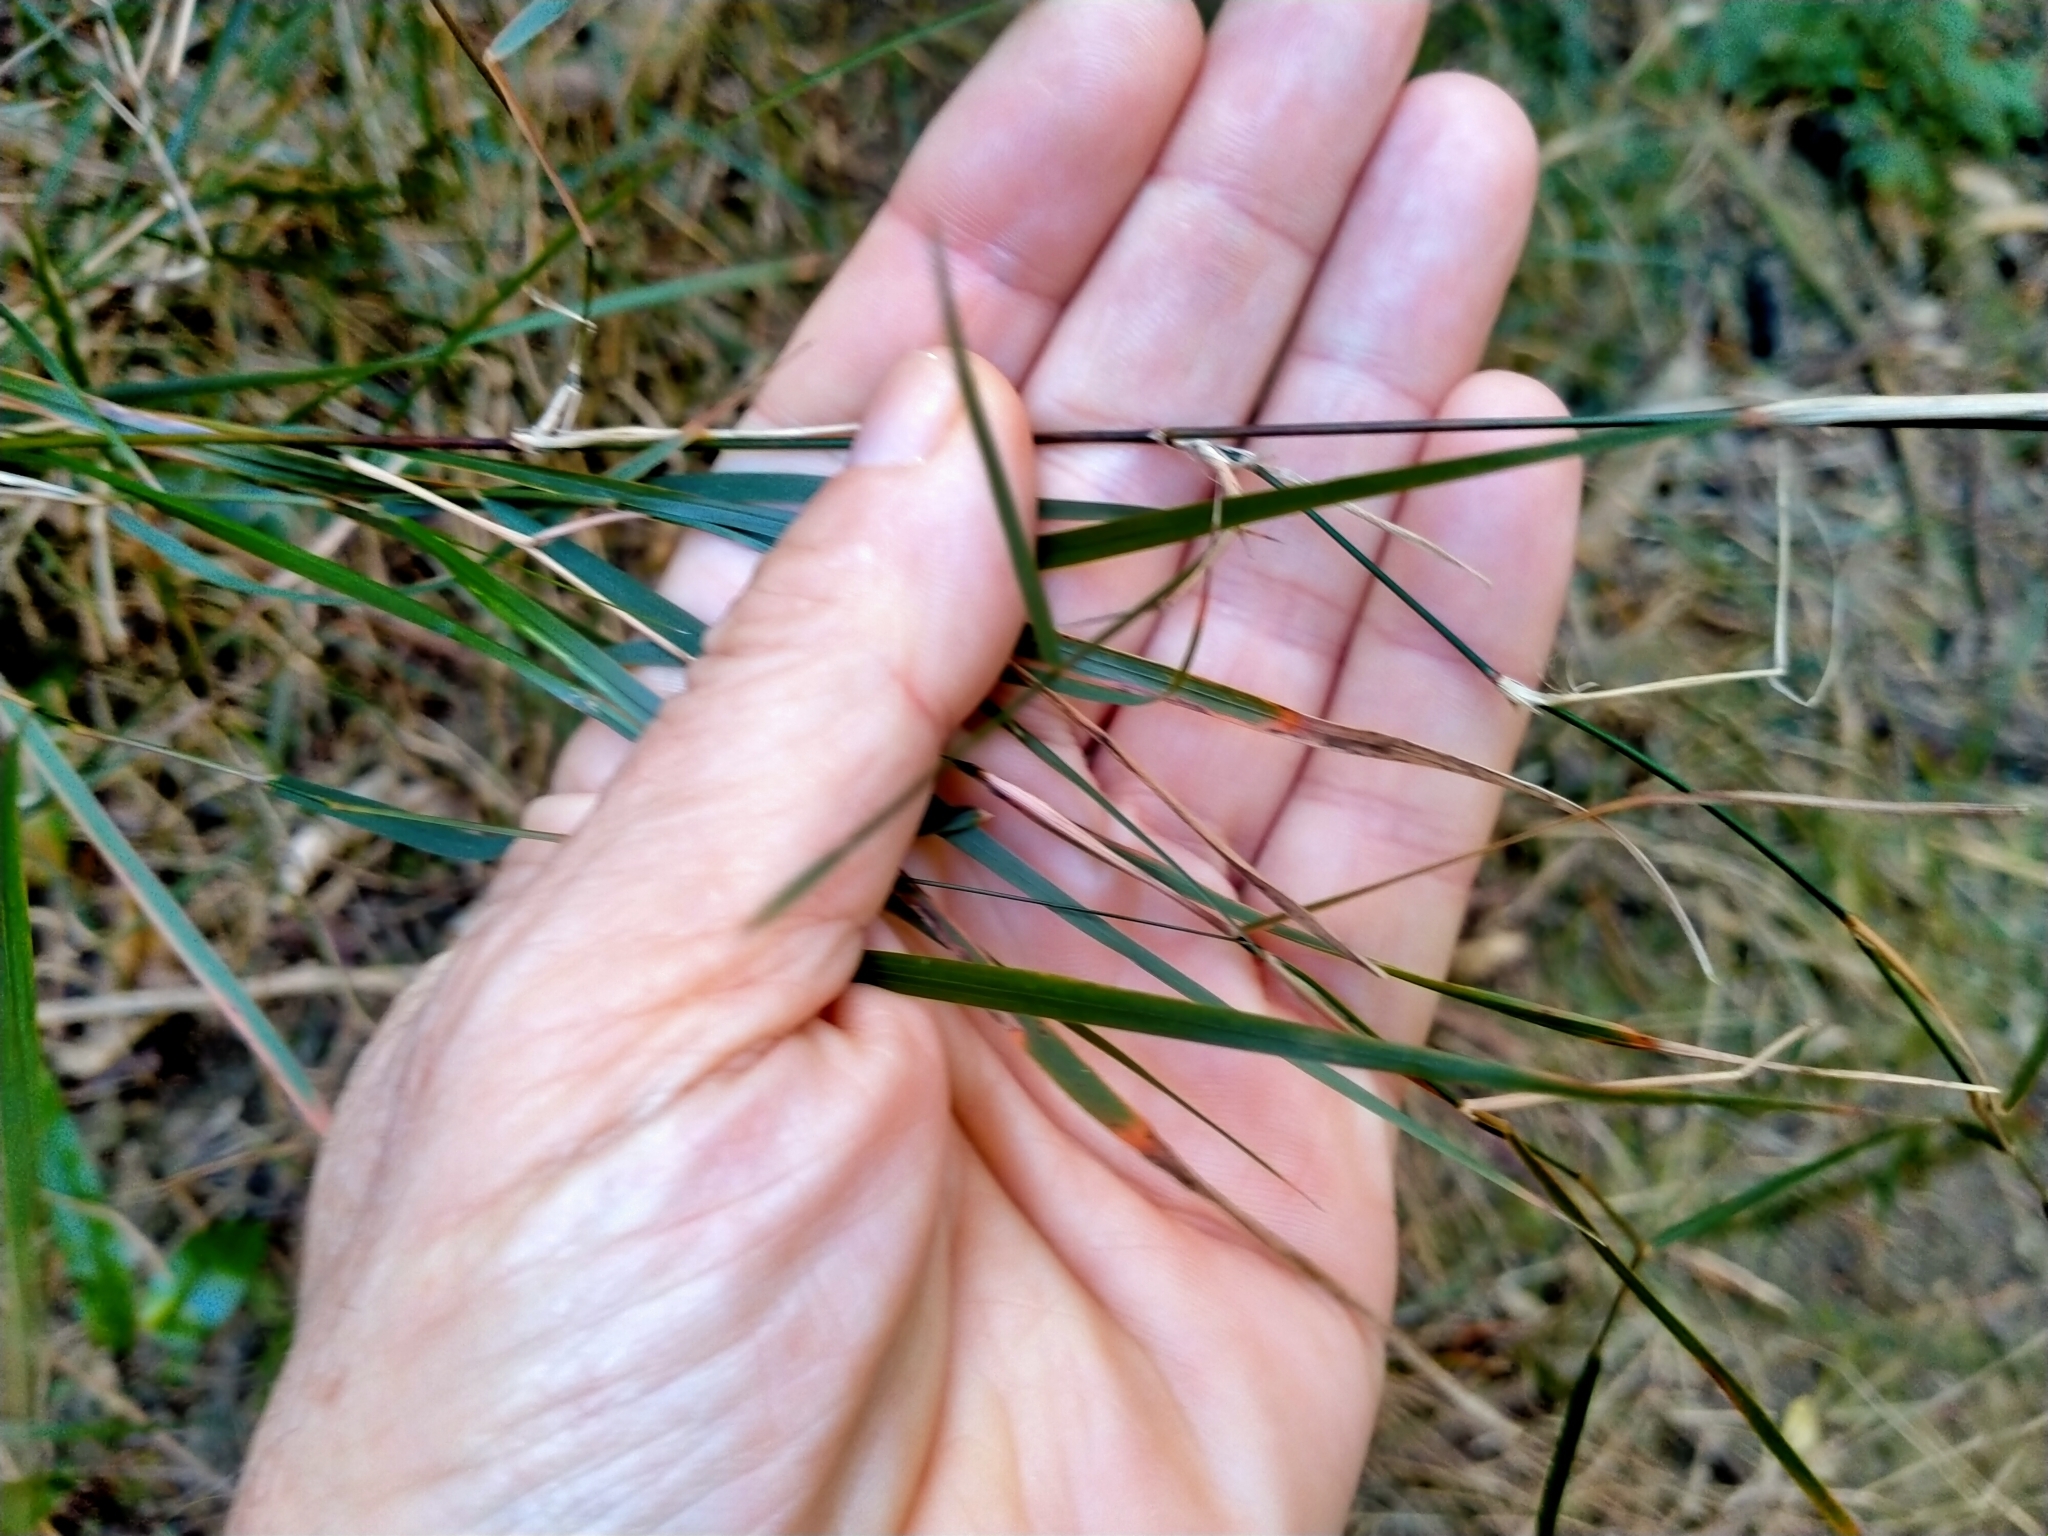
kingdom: Plantae
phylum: Tracheophyta
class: Liliopsida
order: Poales
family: Poaceae
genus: Microlaena
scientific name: Microlaena polynoda
